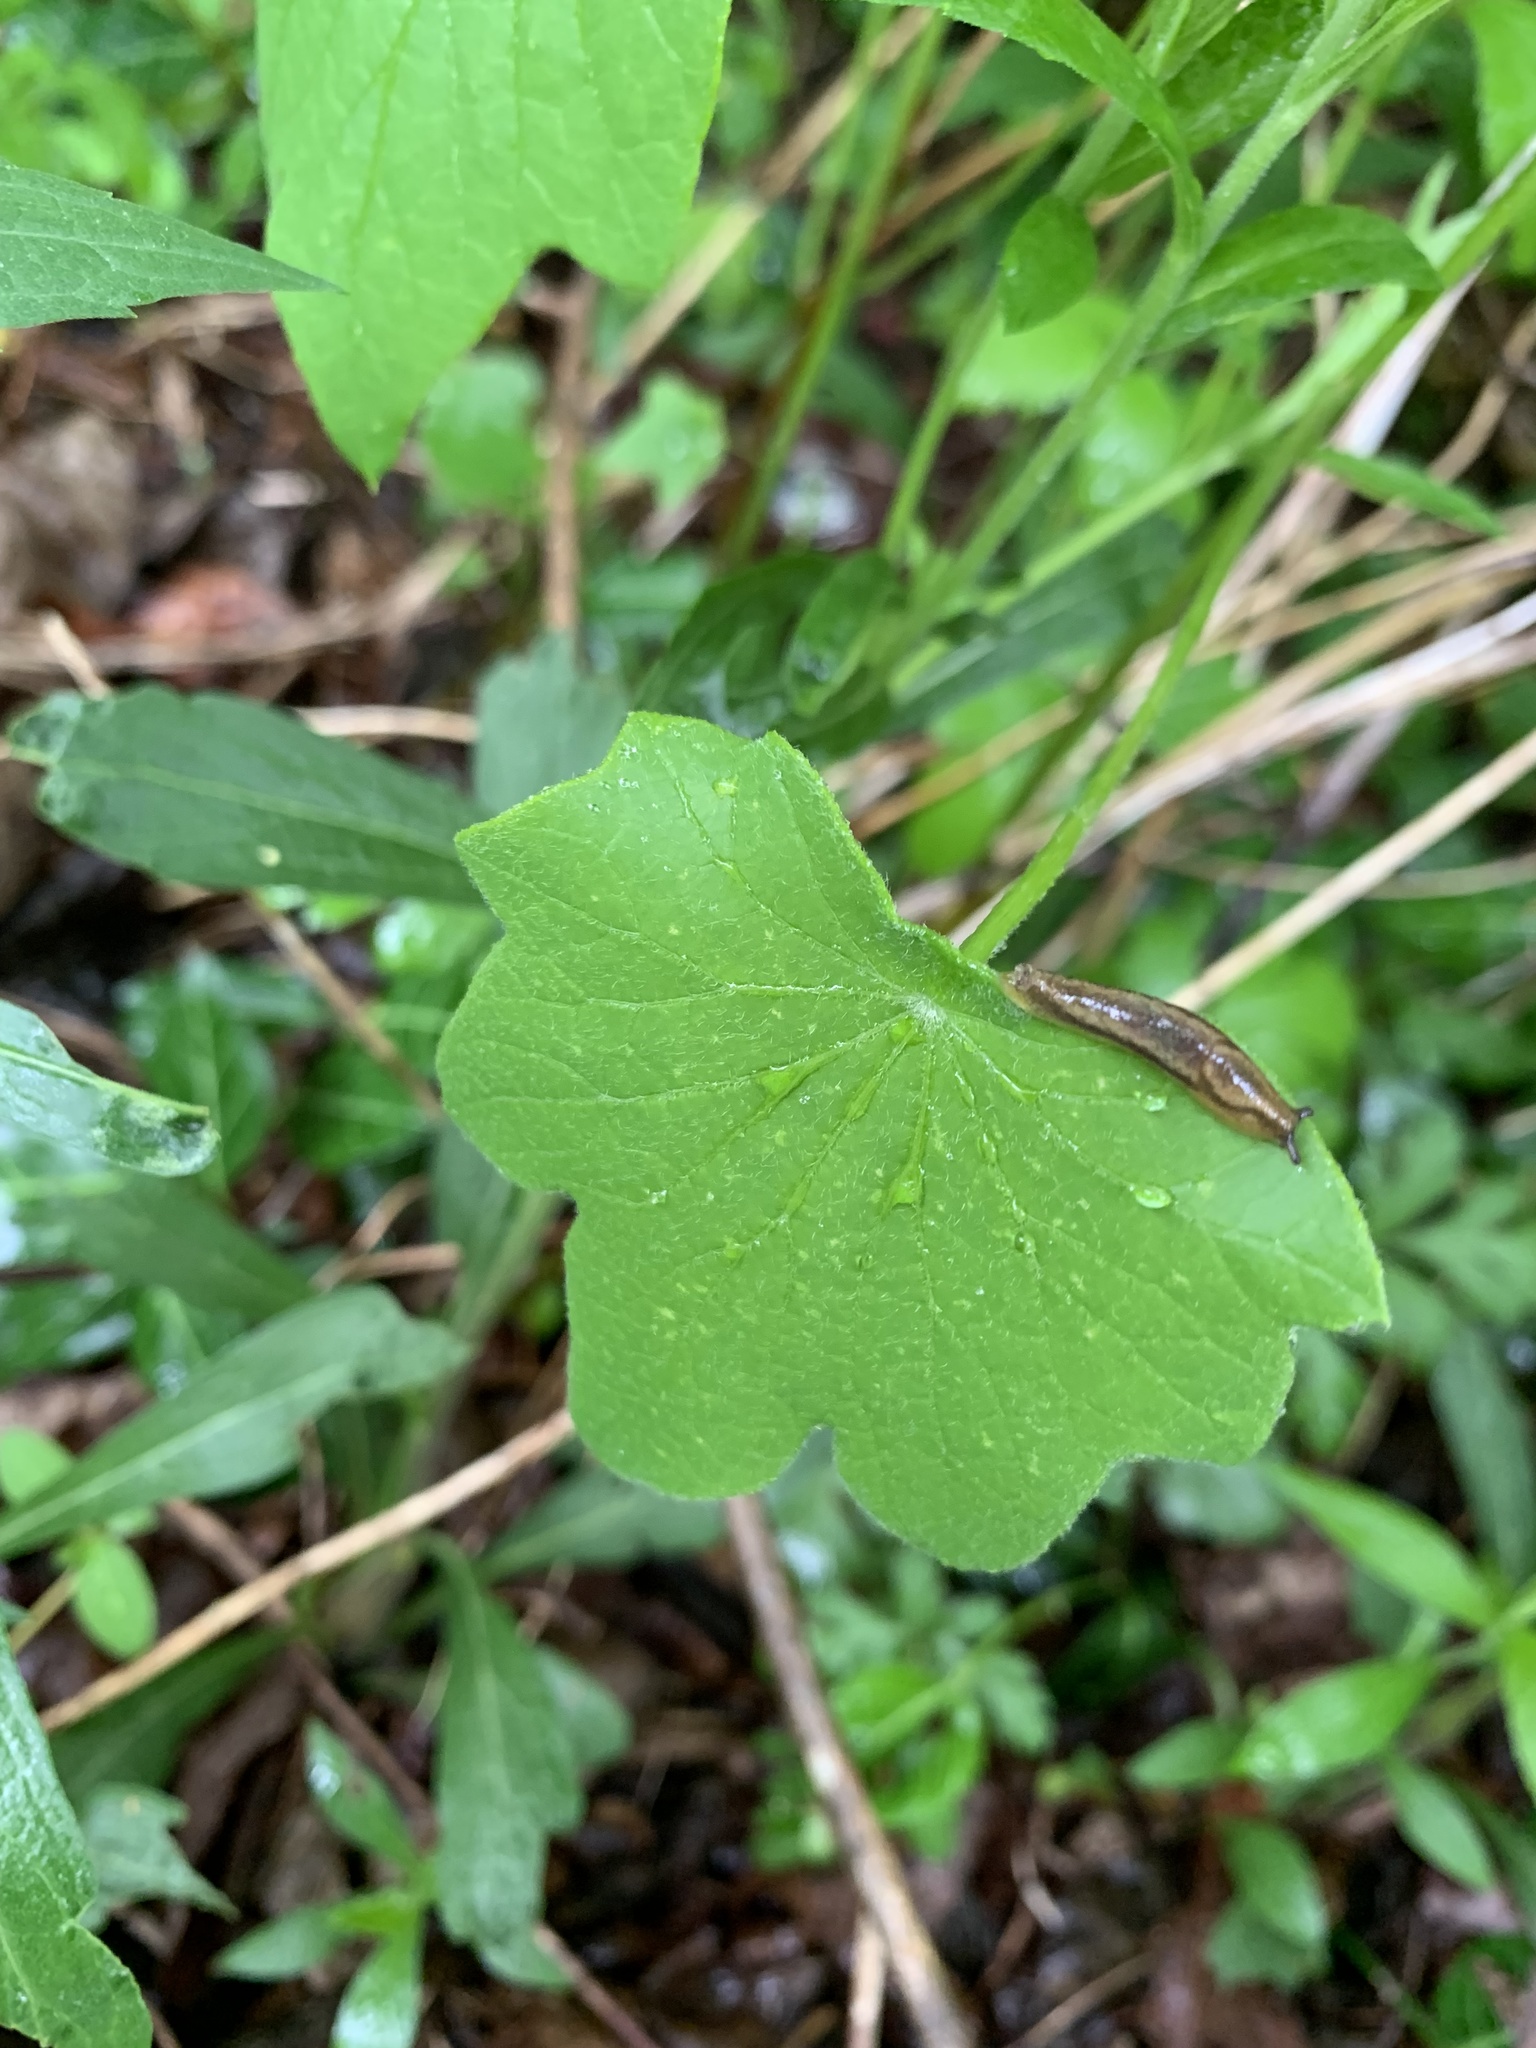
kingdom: Plantae
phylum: Tracheophyta
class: Magnoliopsida
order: Ranunculales
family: Menispermaceae
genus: Menispermum
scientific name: Menispermum canadense
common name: Moonseed
